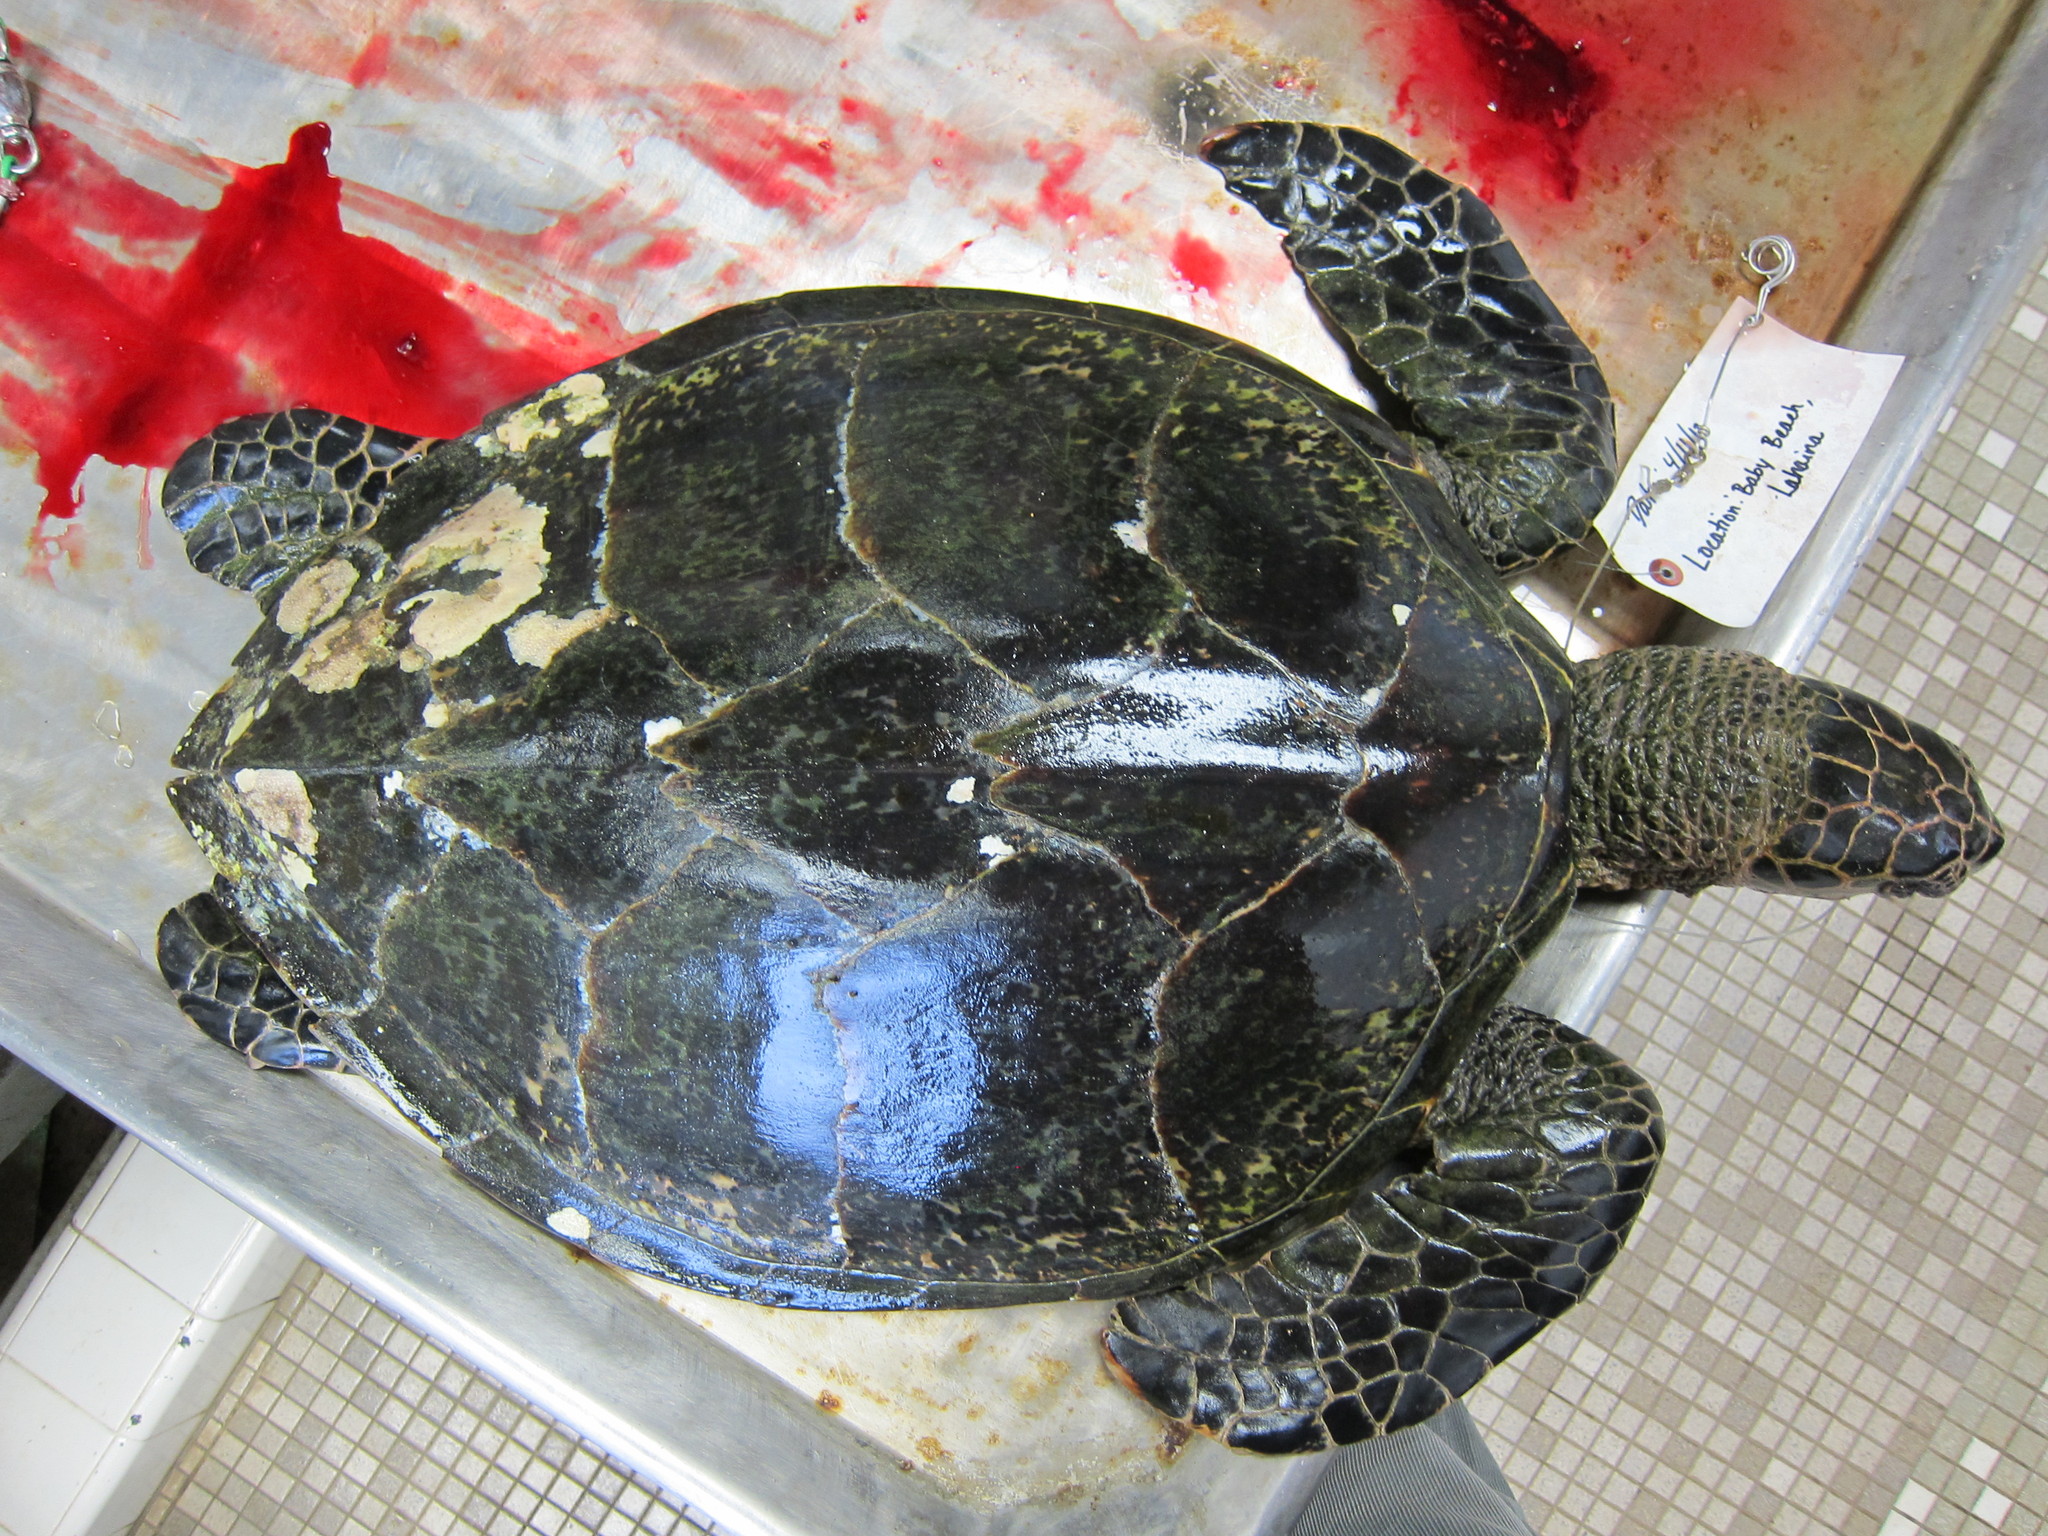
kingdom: Animalia
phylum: Chordata
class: Testudines
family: Cheloniidae
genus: Eretmochelys
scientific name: Eretmochelys imbricata
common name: Hawksbill turtle
